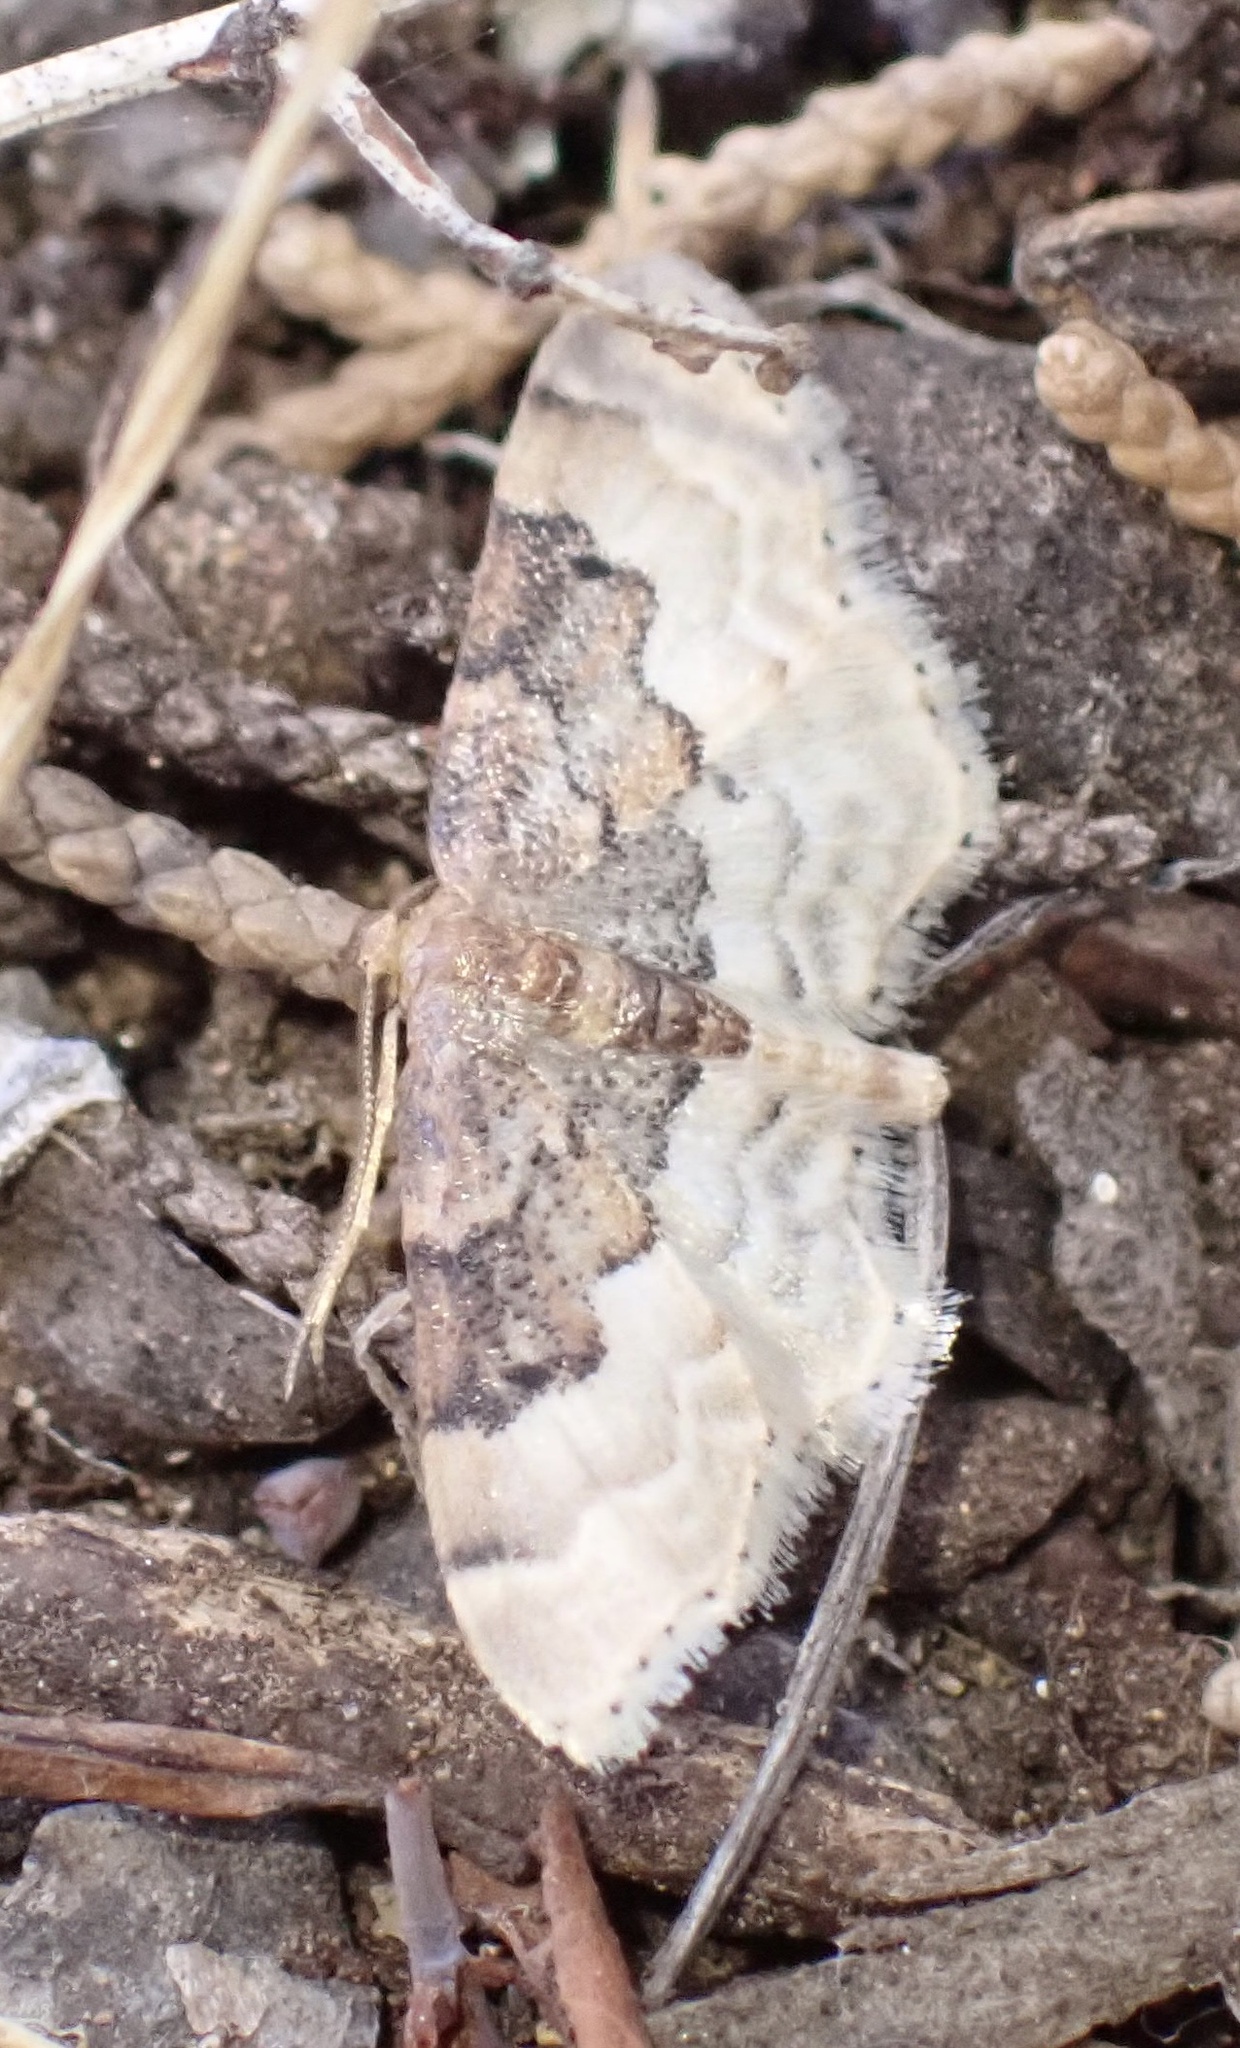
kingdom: Animalia
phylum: Arthropoda
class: Insecta
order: Lepidoptera
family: Geometridae
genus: Idaea
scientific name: Idaea completa
